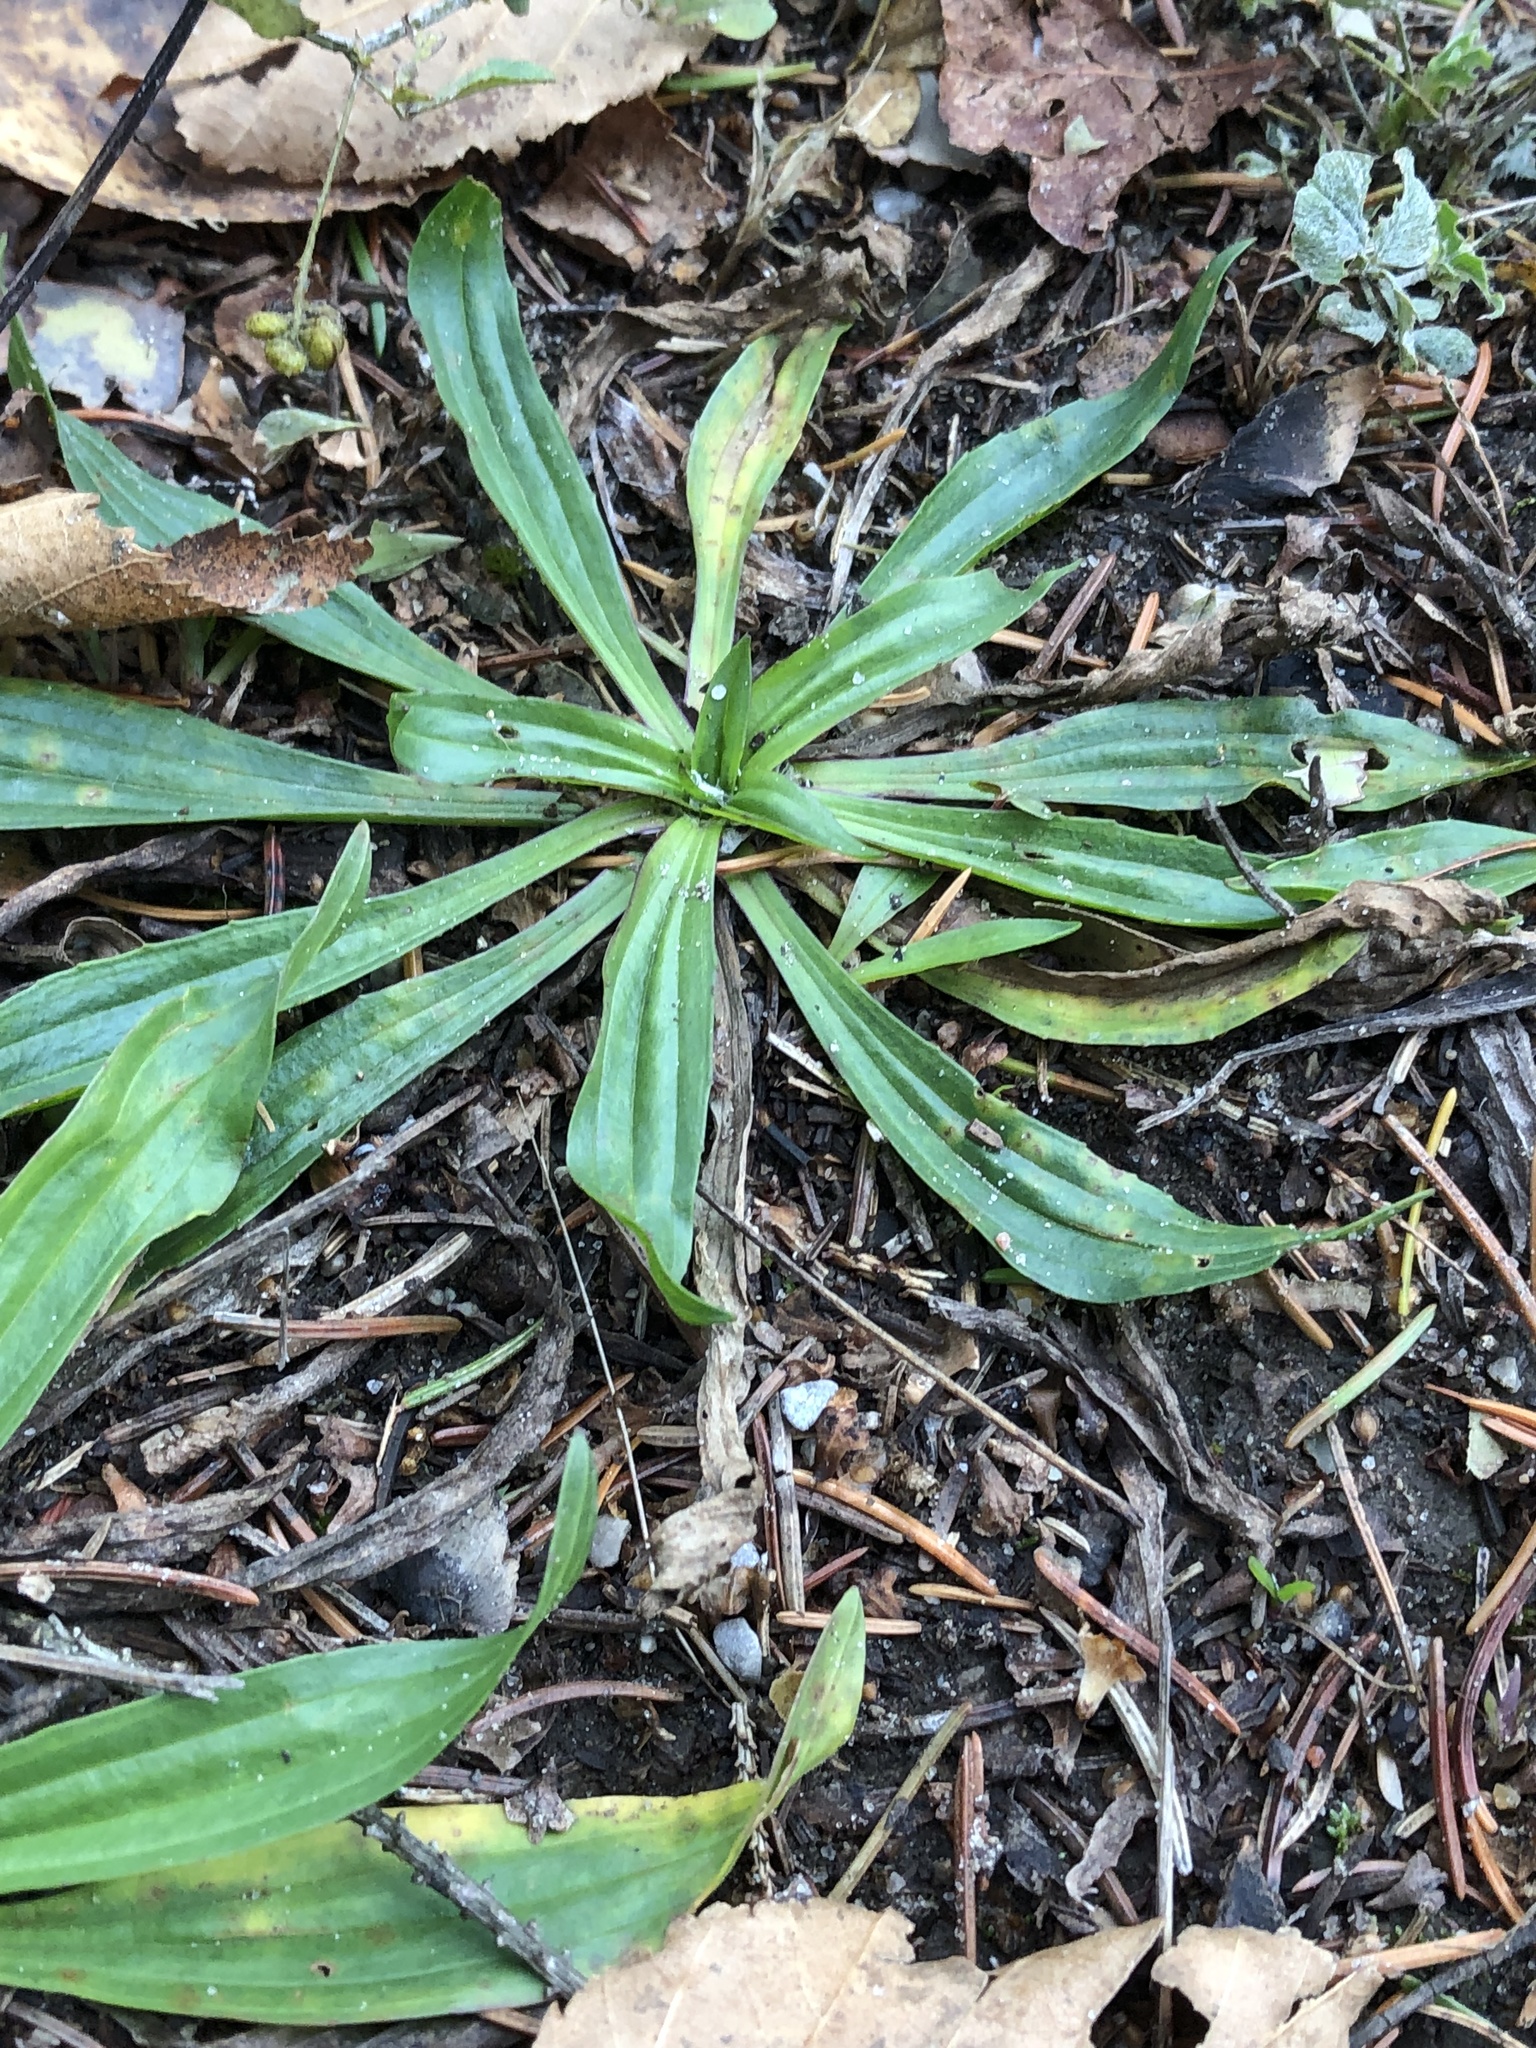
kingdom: Plantae
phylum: Tracheophyta
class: Magnoliopsida
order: Lamiales
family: Plantaginaceae
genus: Plantago
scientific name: Plantago lanceolata
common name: Ribwort plantain
